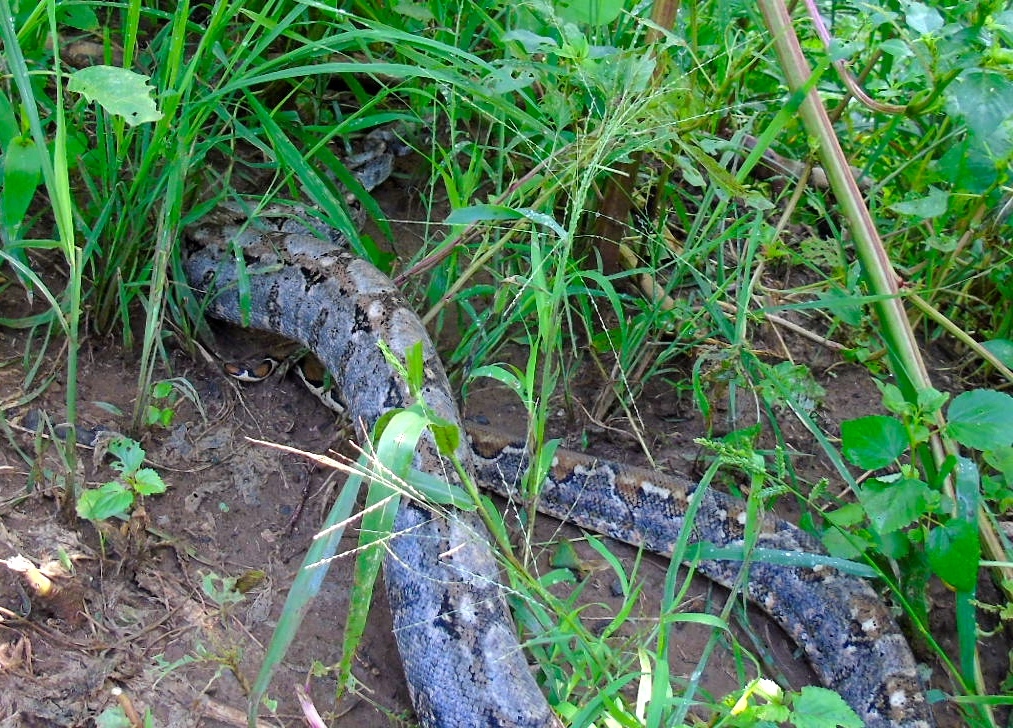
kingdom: Animalia
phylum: Chordata
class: Squamata
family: Boidae
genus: Boa
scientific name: Boa
